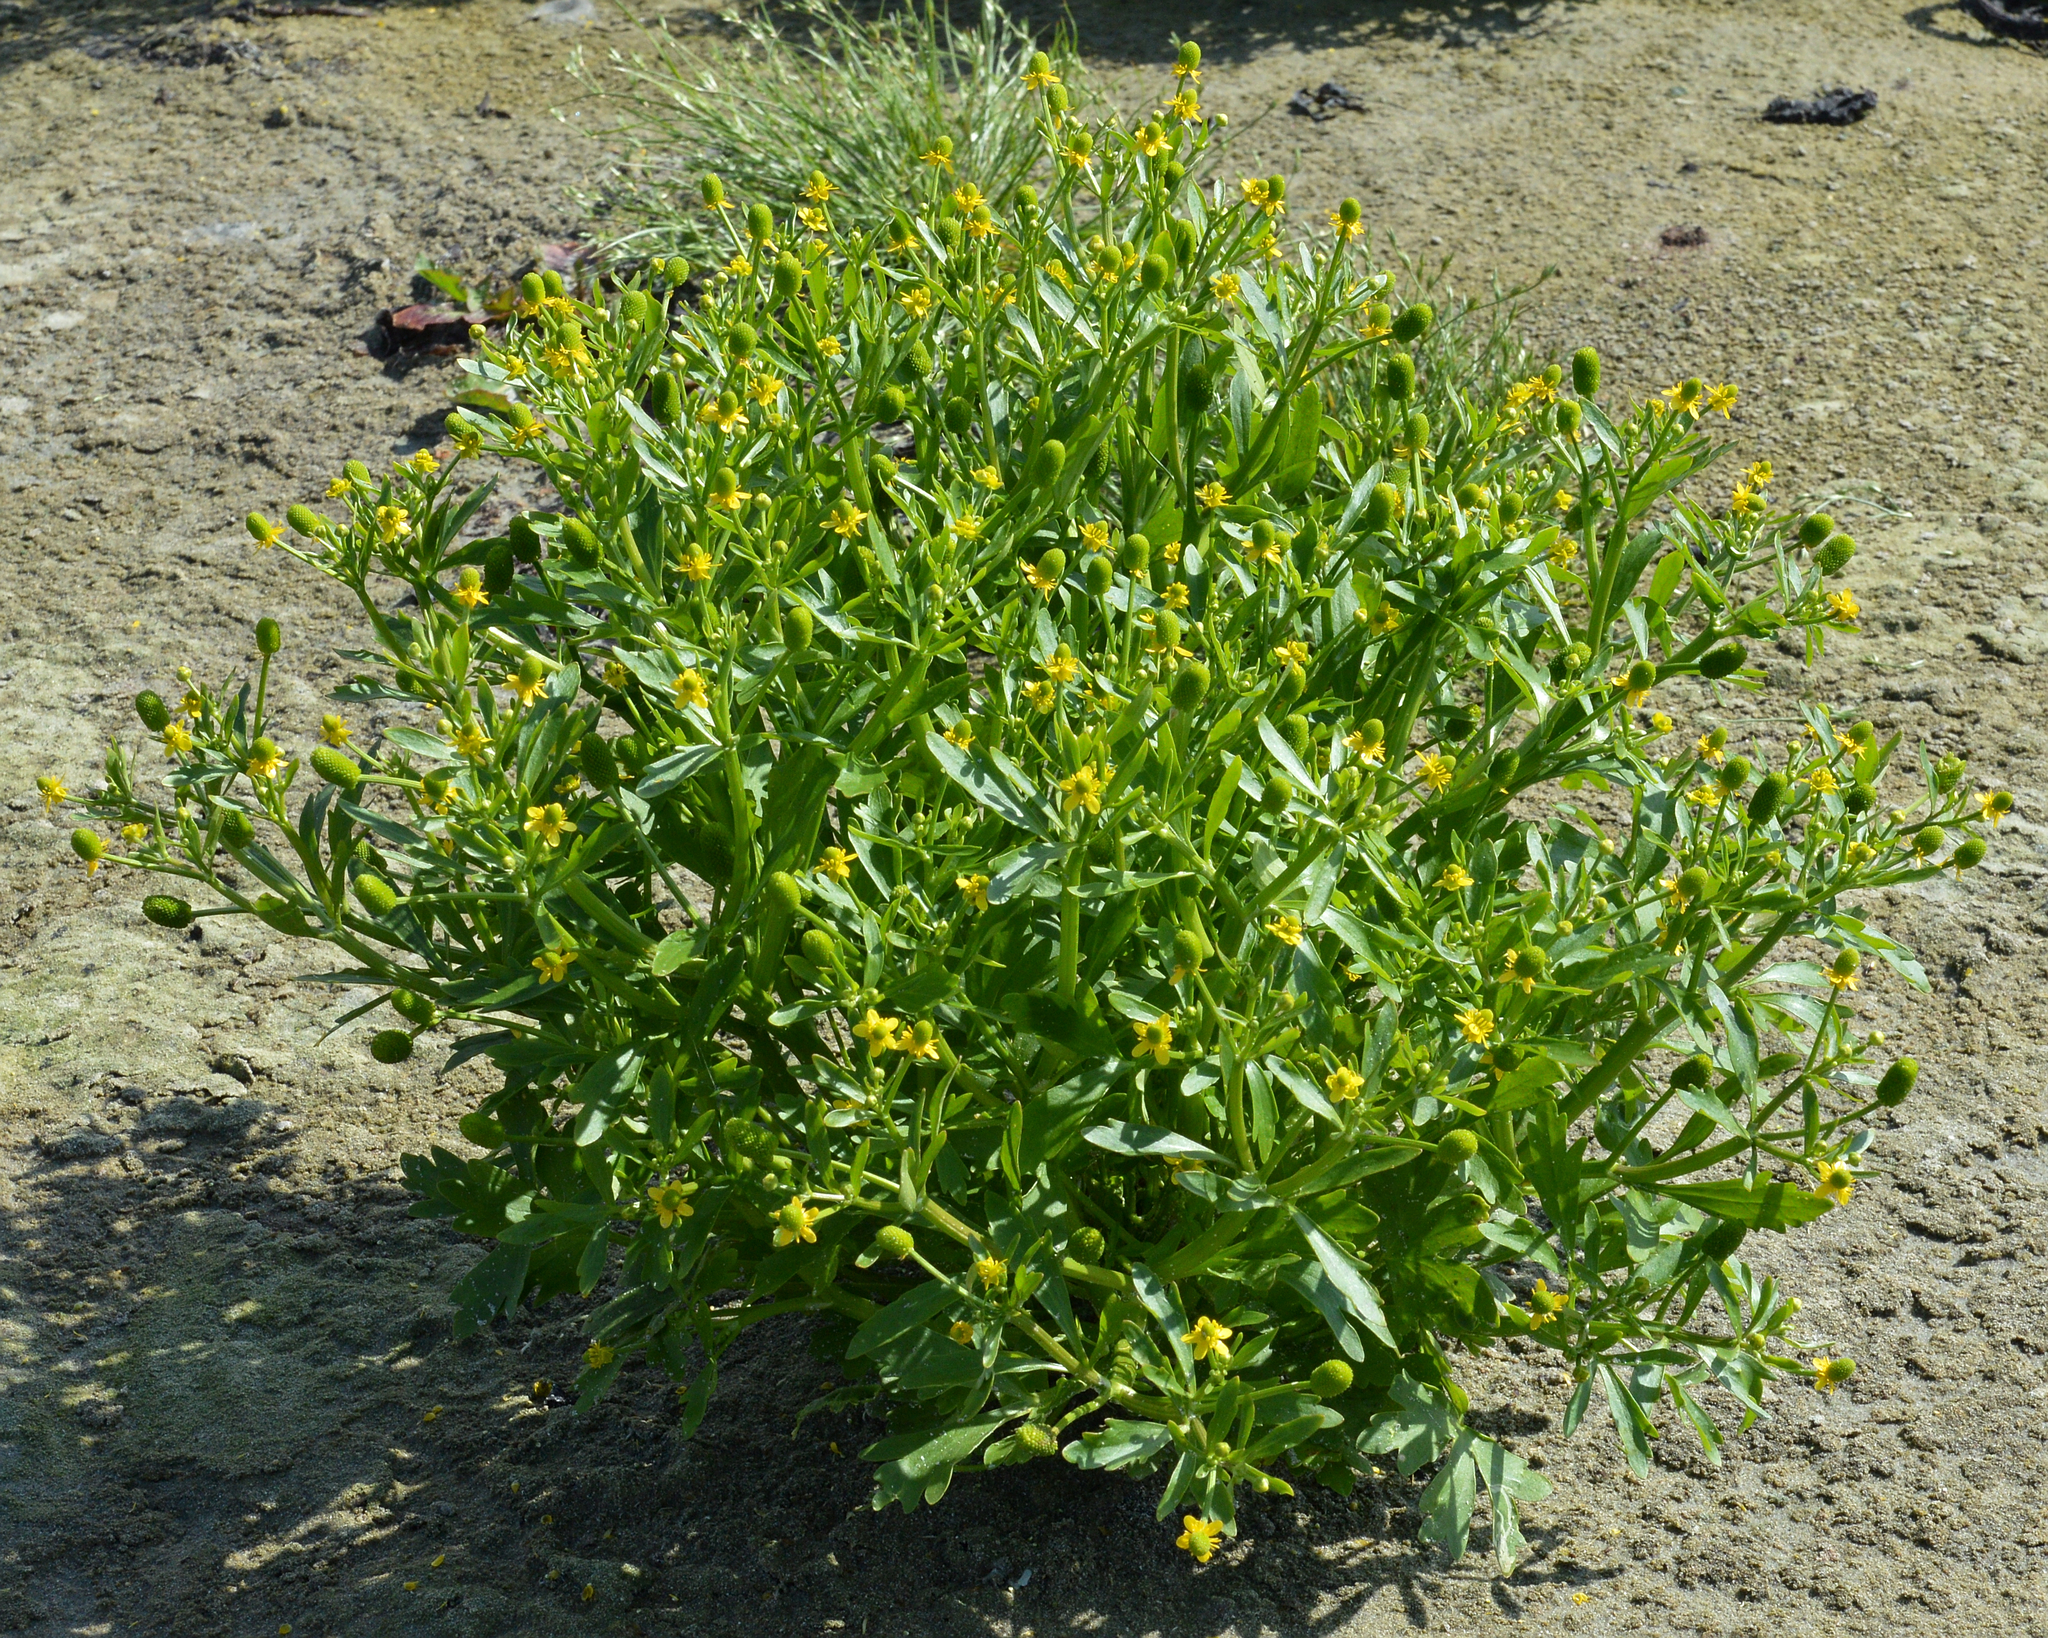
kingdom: Plantae
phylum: Tracheophyta
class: Magnoliopsida
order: Ranunculales
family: Ranunculaceae
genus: Ranunculus
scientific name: Ranunculus sceleratus
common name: Celery-leaved buttercup
